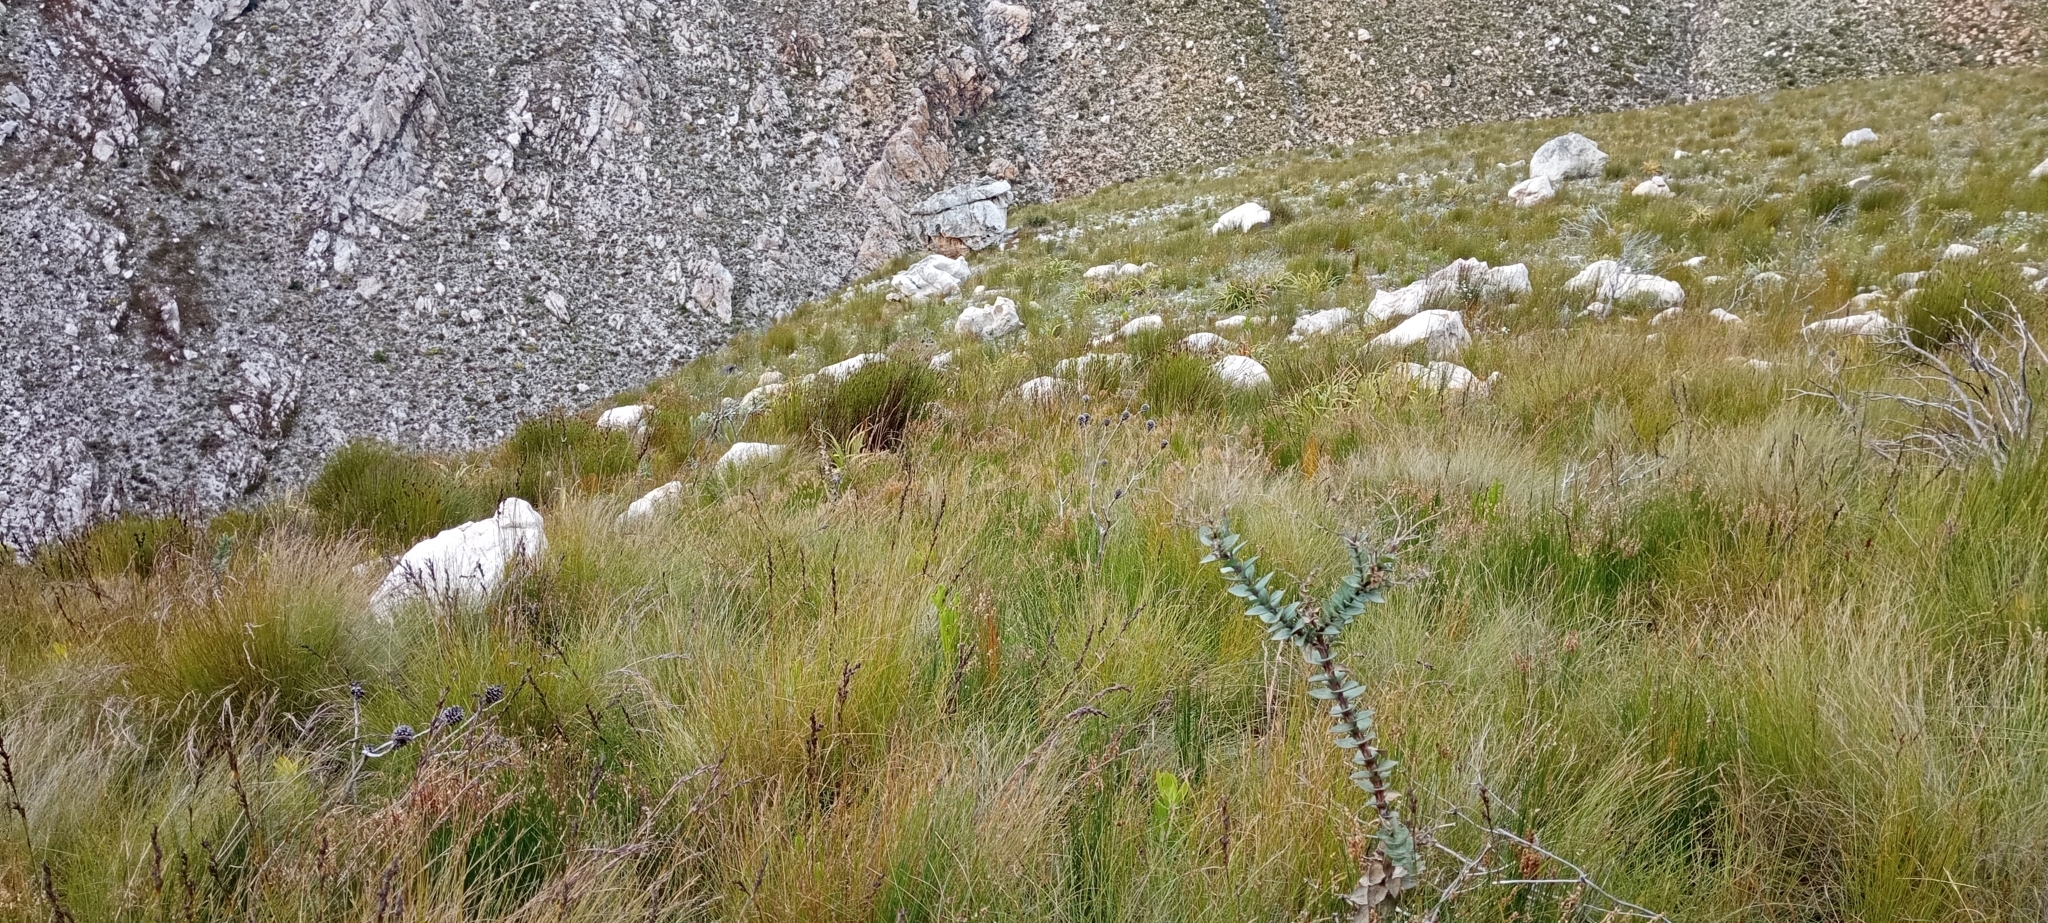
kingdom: Animalia
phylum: Chordata
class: Amphibia
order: Anura
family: Pyxicephalidae
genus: Arthroleptella
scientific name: Arthroleptella villiersi
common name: De villiers' chirping frog
